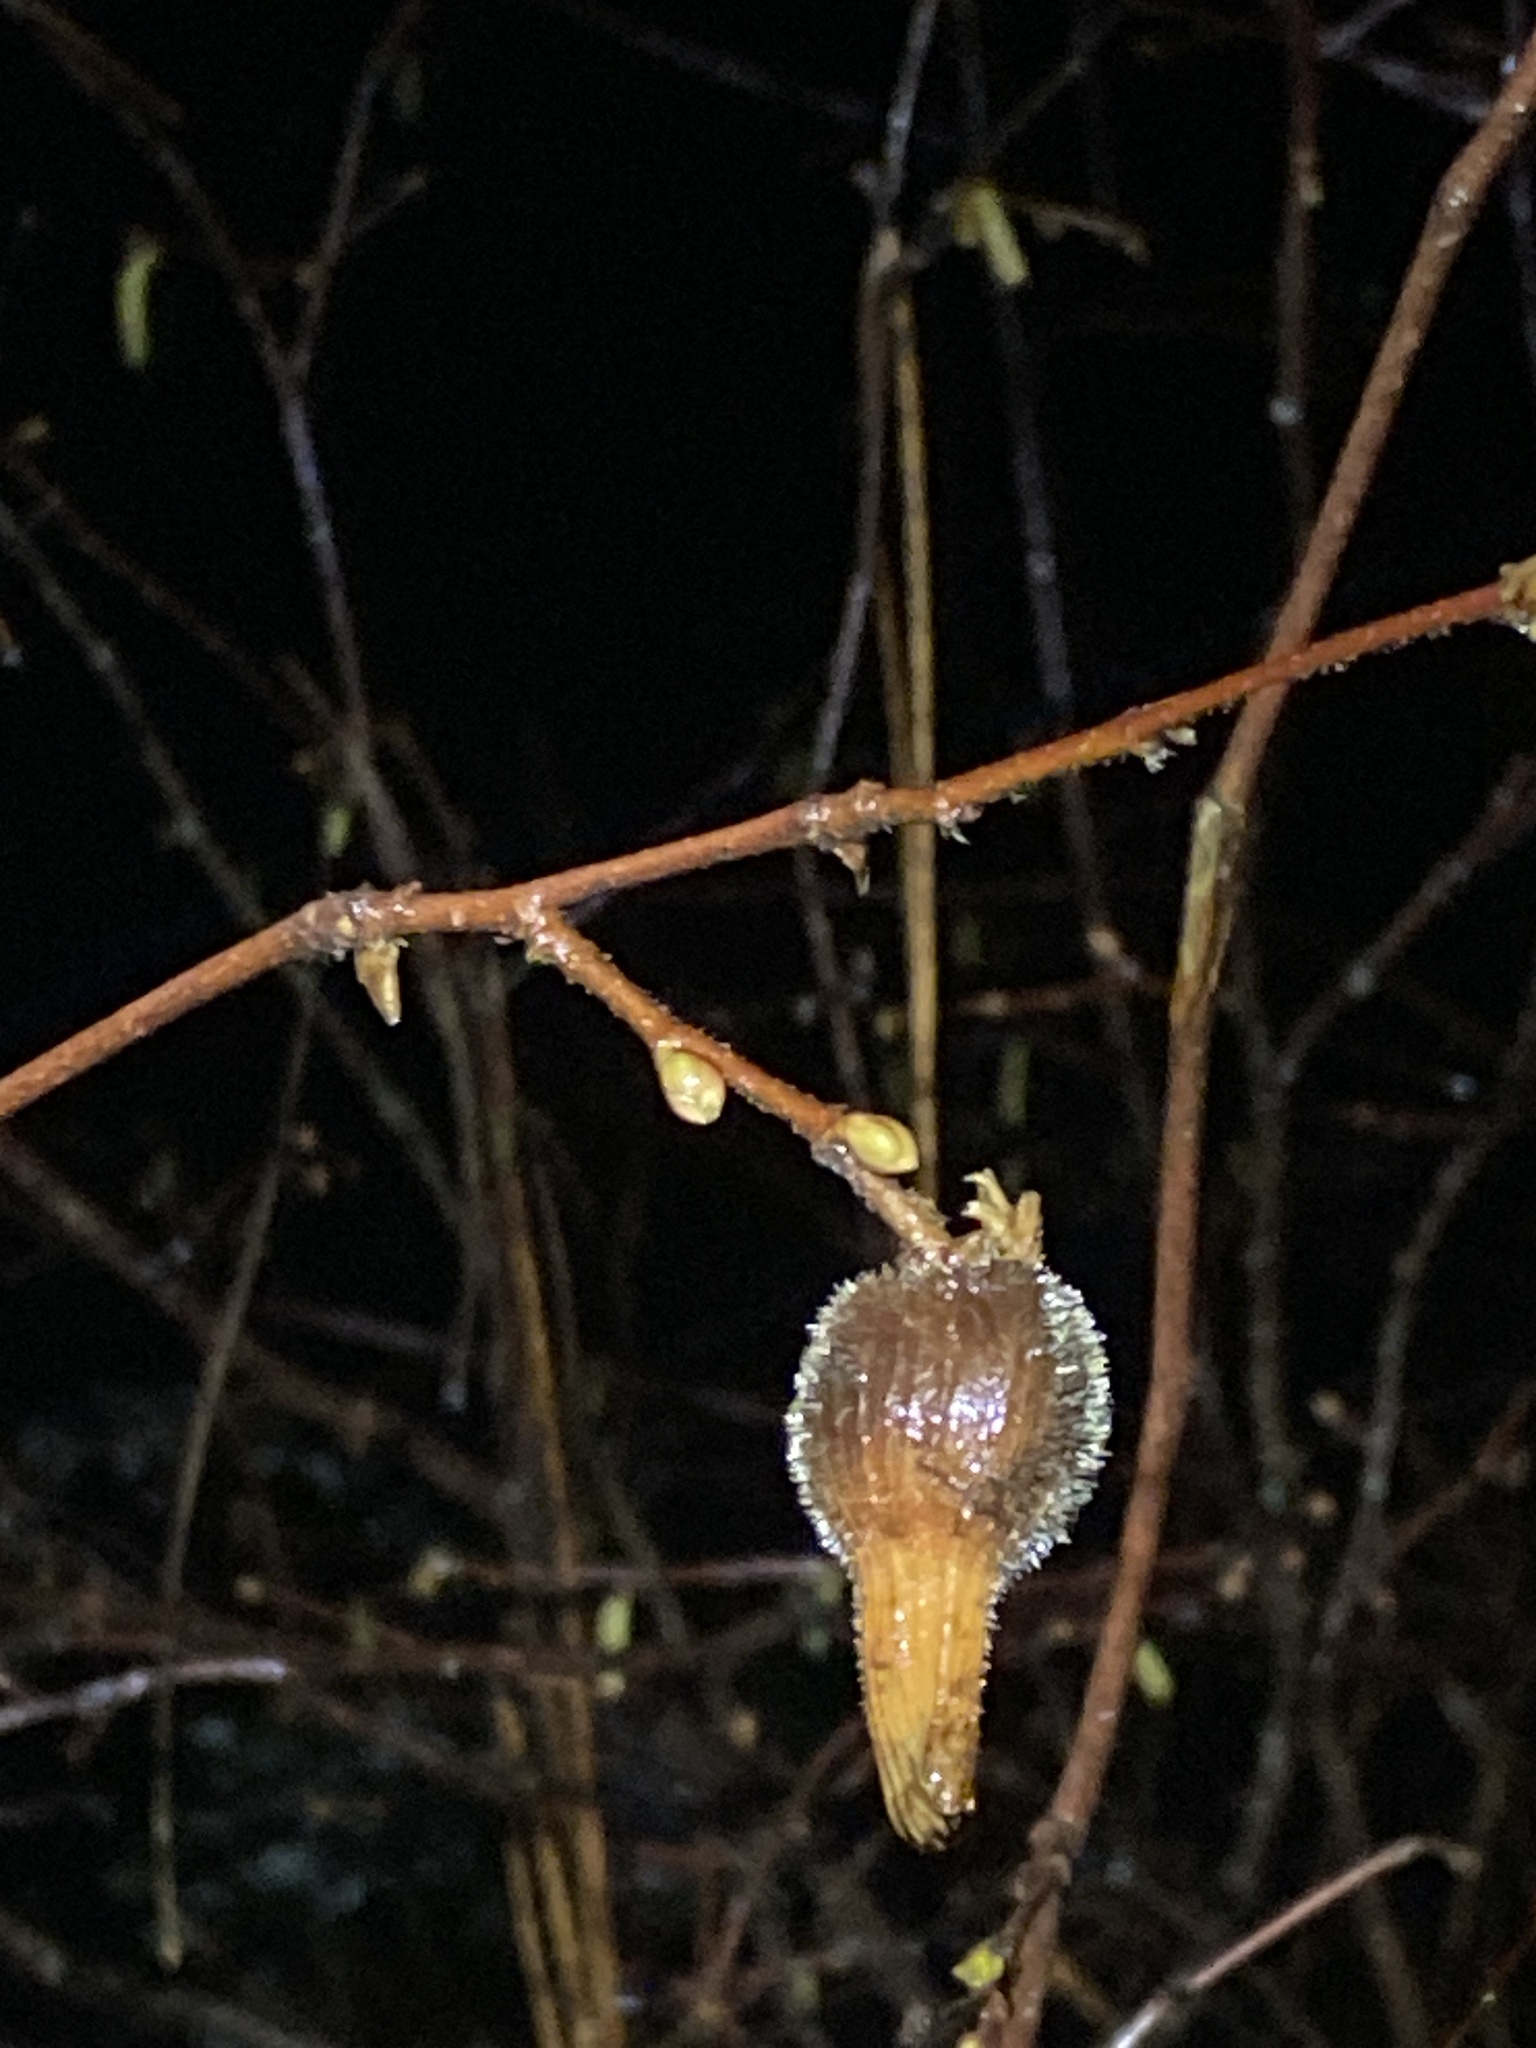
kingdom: Plantae
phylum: Tracheophyta
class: Magnoliopsida
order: Fagales
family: Betulaceae
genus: Corylus
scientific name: Corylus cornuta
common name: Beaked hazel
